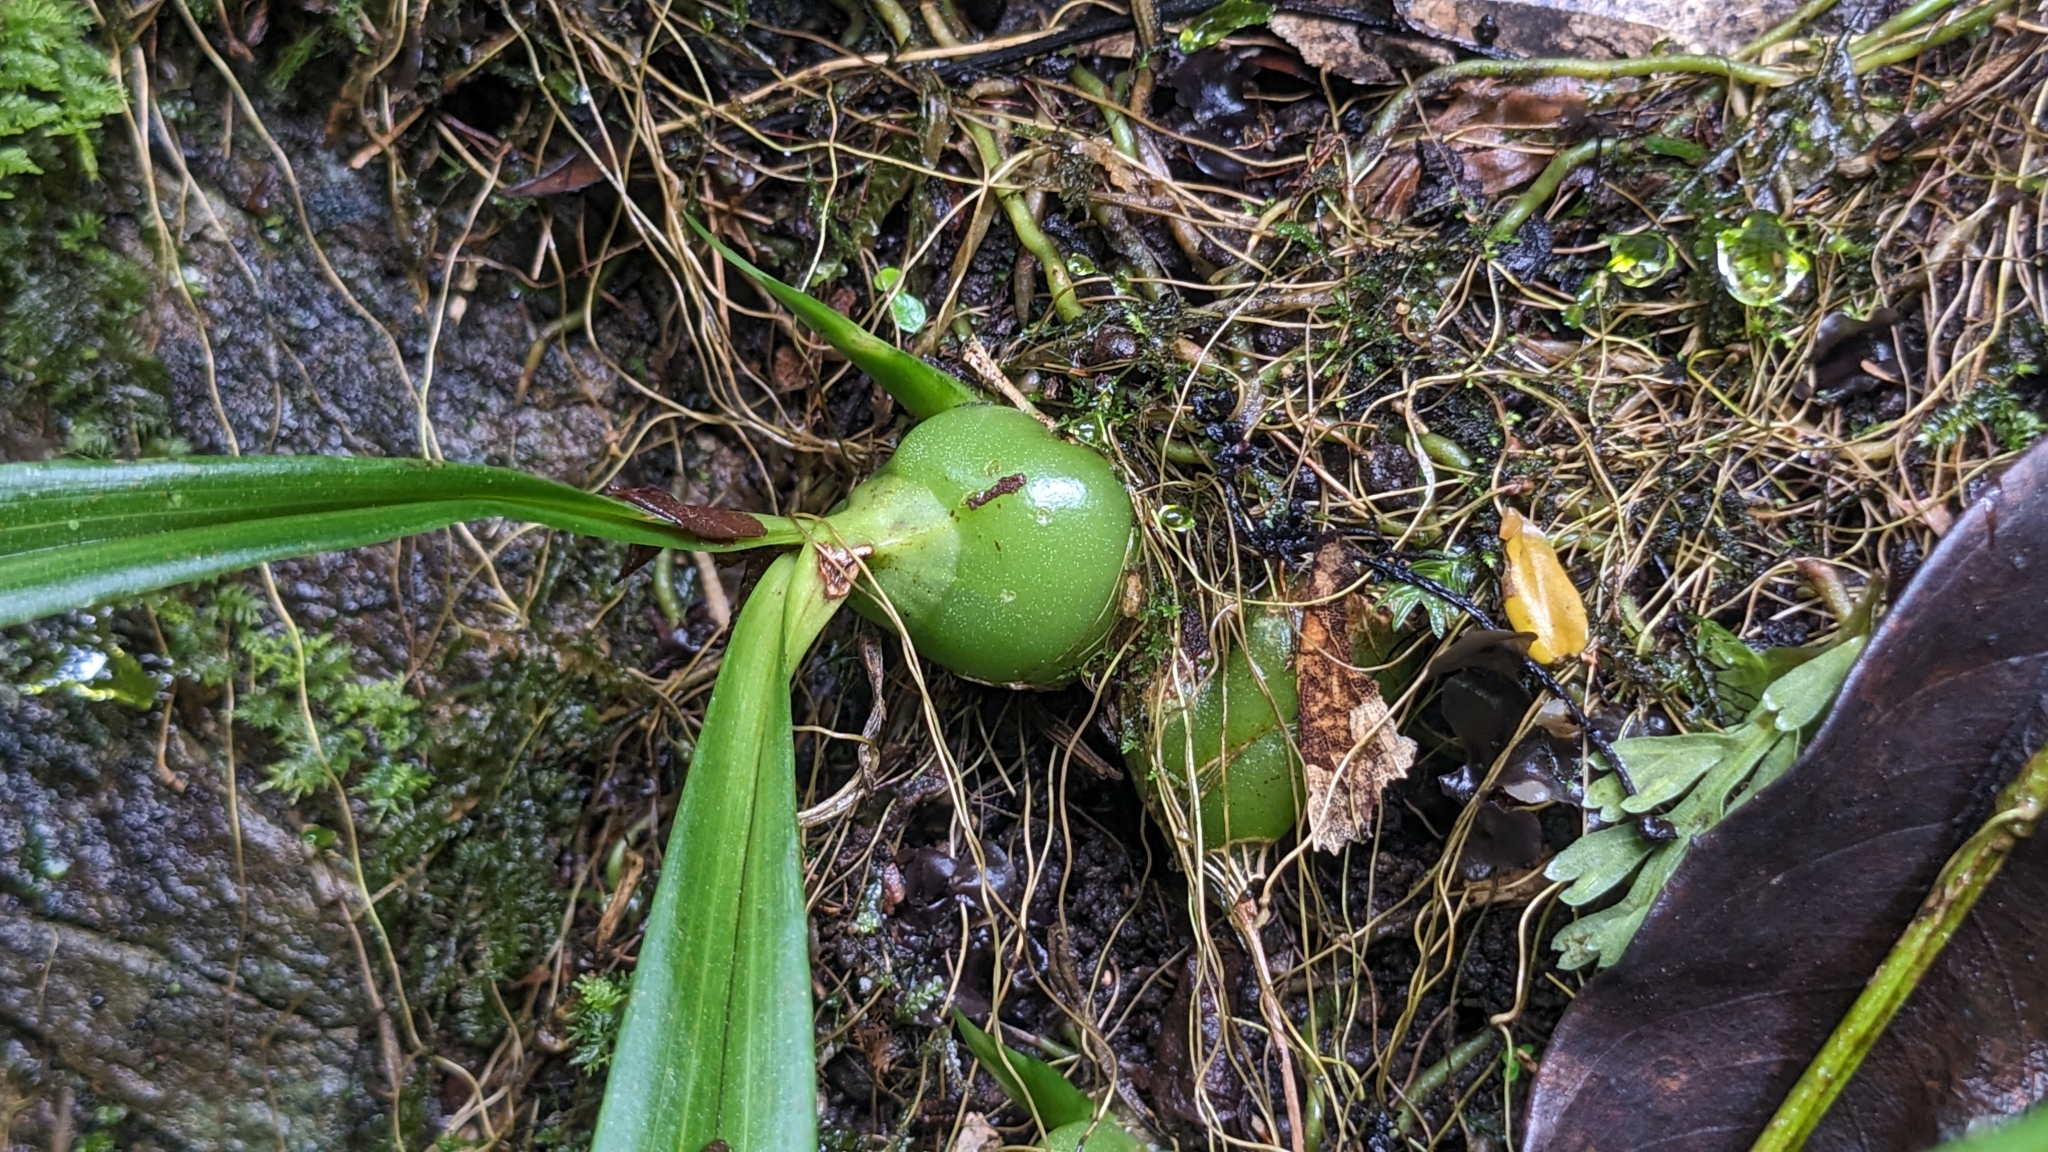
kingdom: Plantae
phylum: Tracheophyta
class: Liliopsida
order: Asparagales
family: Orchidaceae
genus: Liparis
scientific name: Liparis nakaharae
